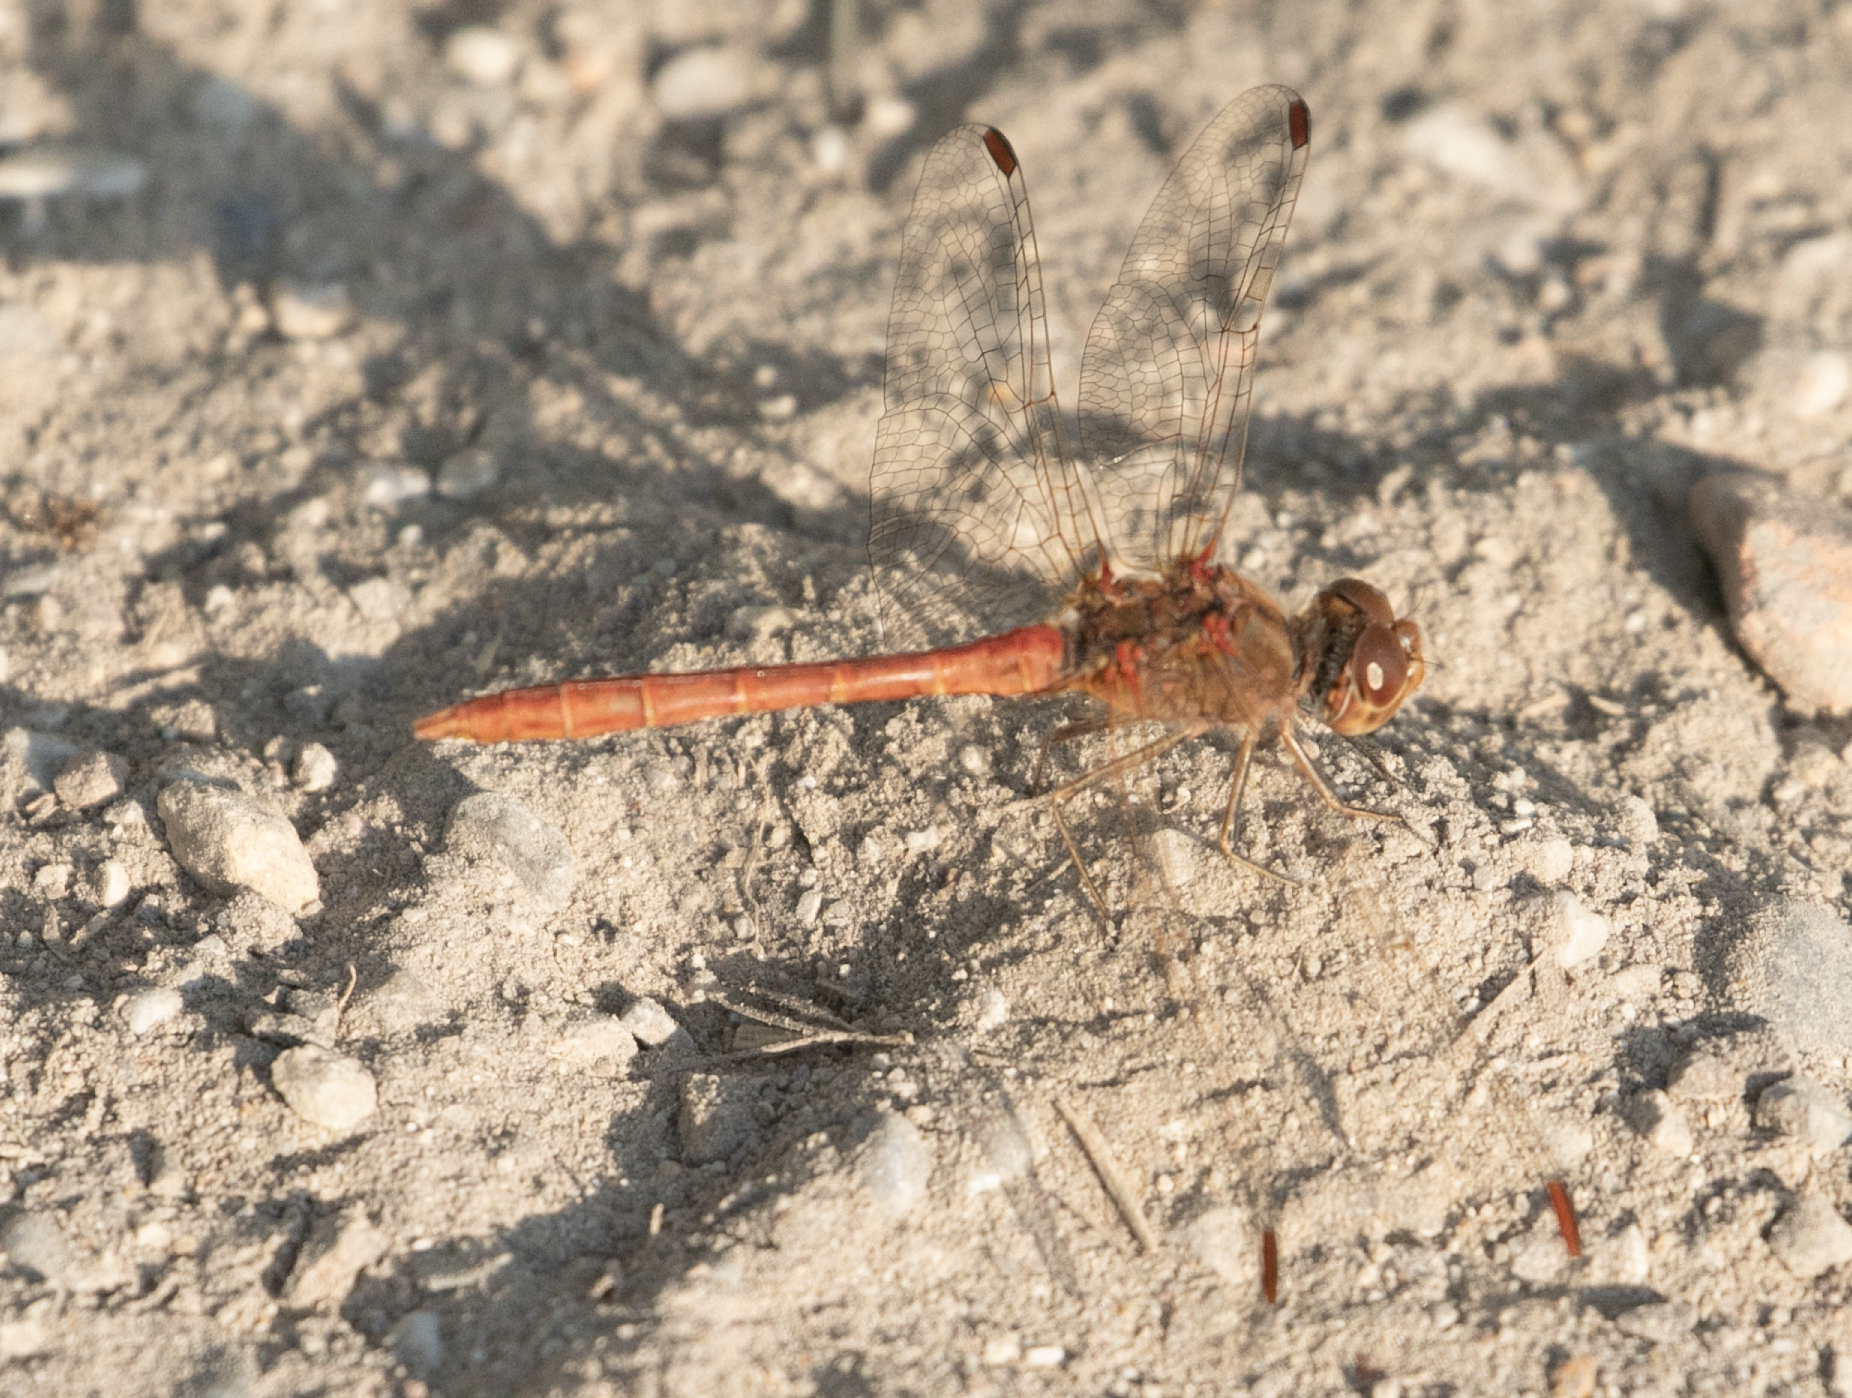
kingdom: Animalia
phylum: Arthropoda
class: Insecta
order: Odonata
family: Libellulidae
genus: Sympetrum
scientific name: Sympetrum meridionale
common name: Southern darter
